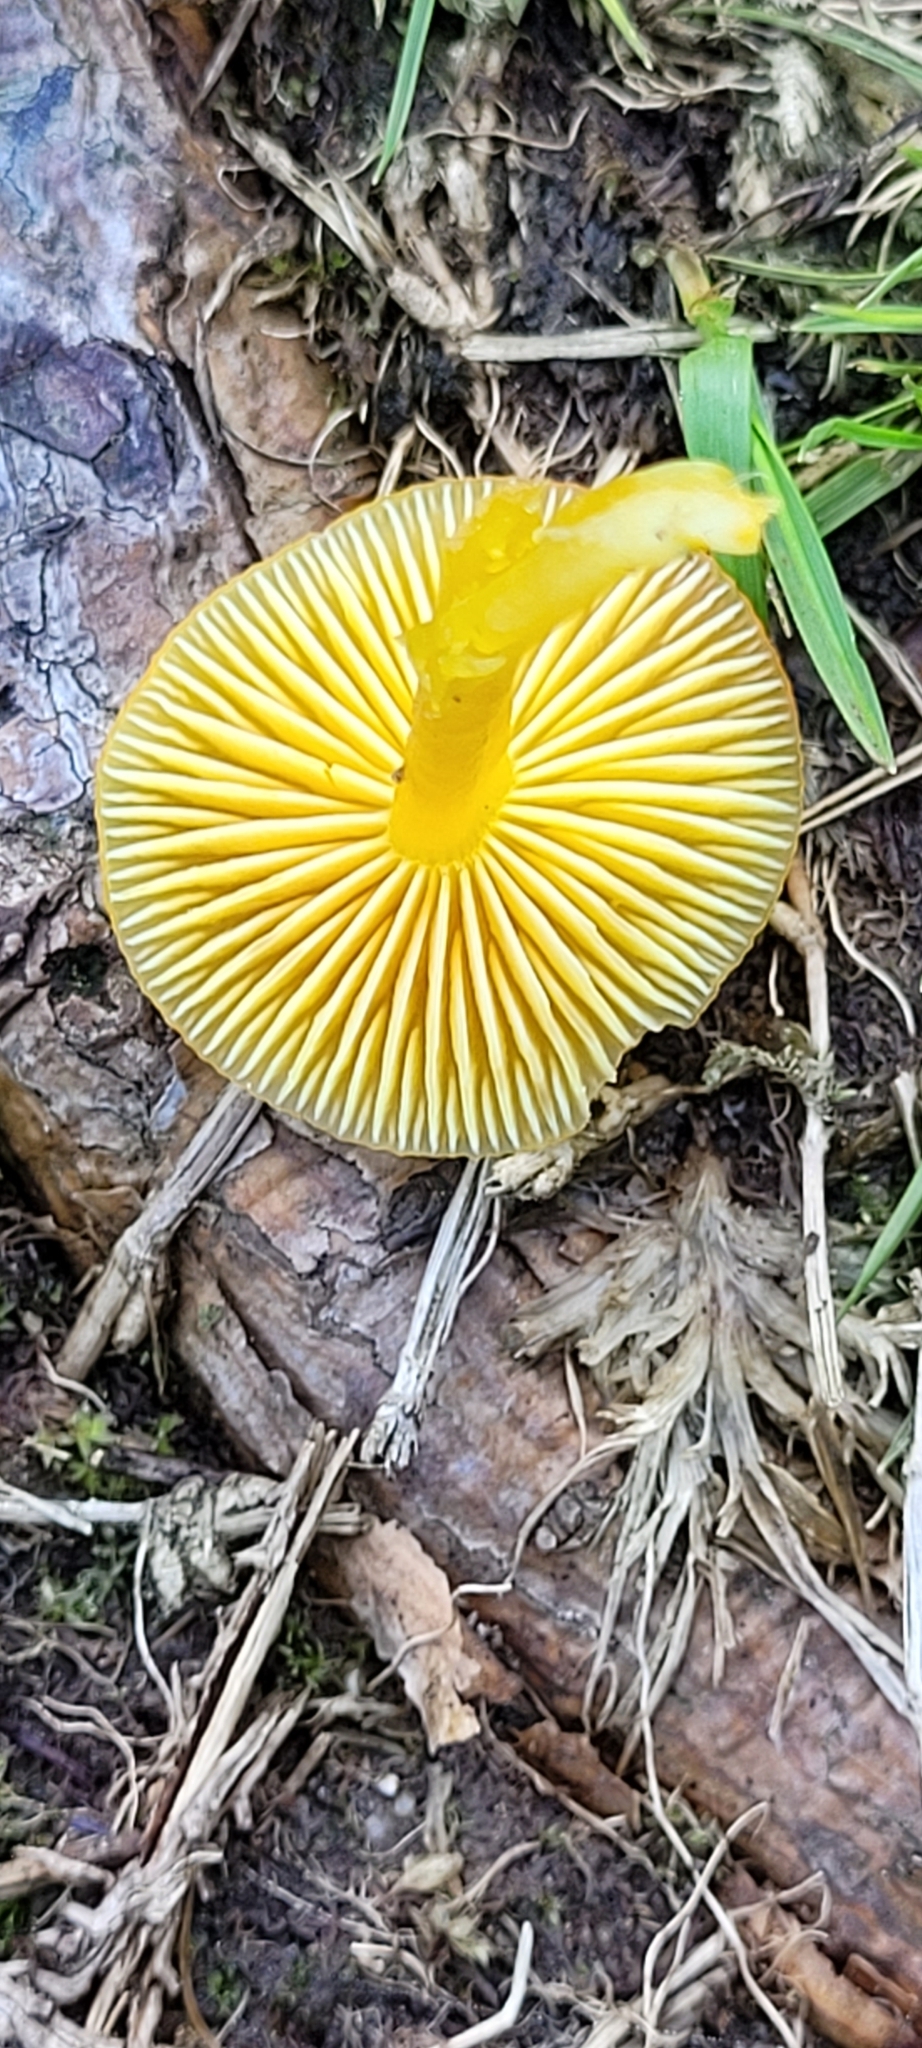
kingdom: Fungi
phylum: Basidiomycota
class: Agaricomycetes
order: Agaricales
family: Hygrophoraceae
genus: Hygrocybe
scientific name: Hygrocybe ceracea
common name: Butter waxcap
